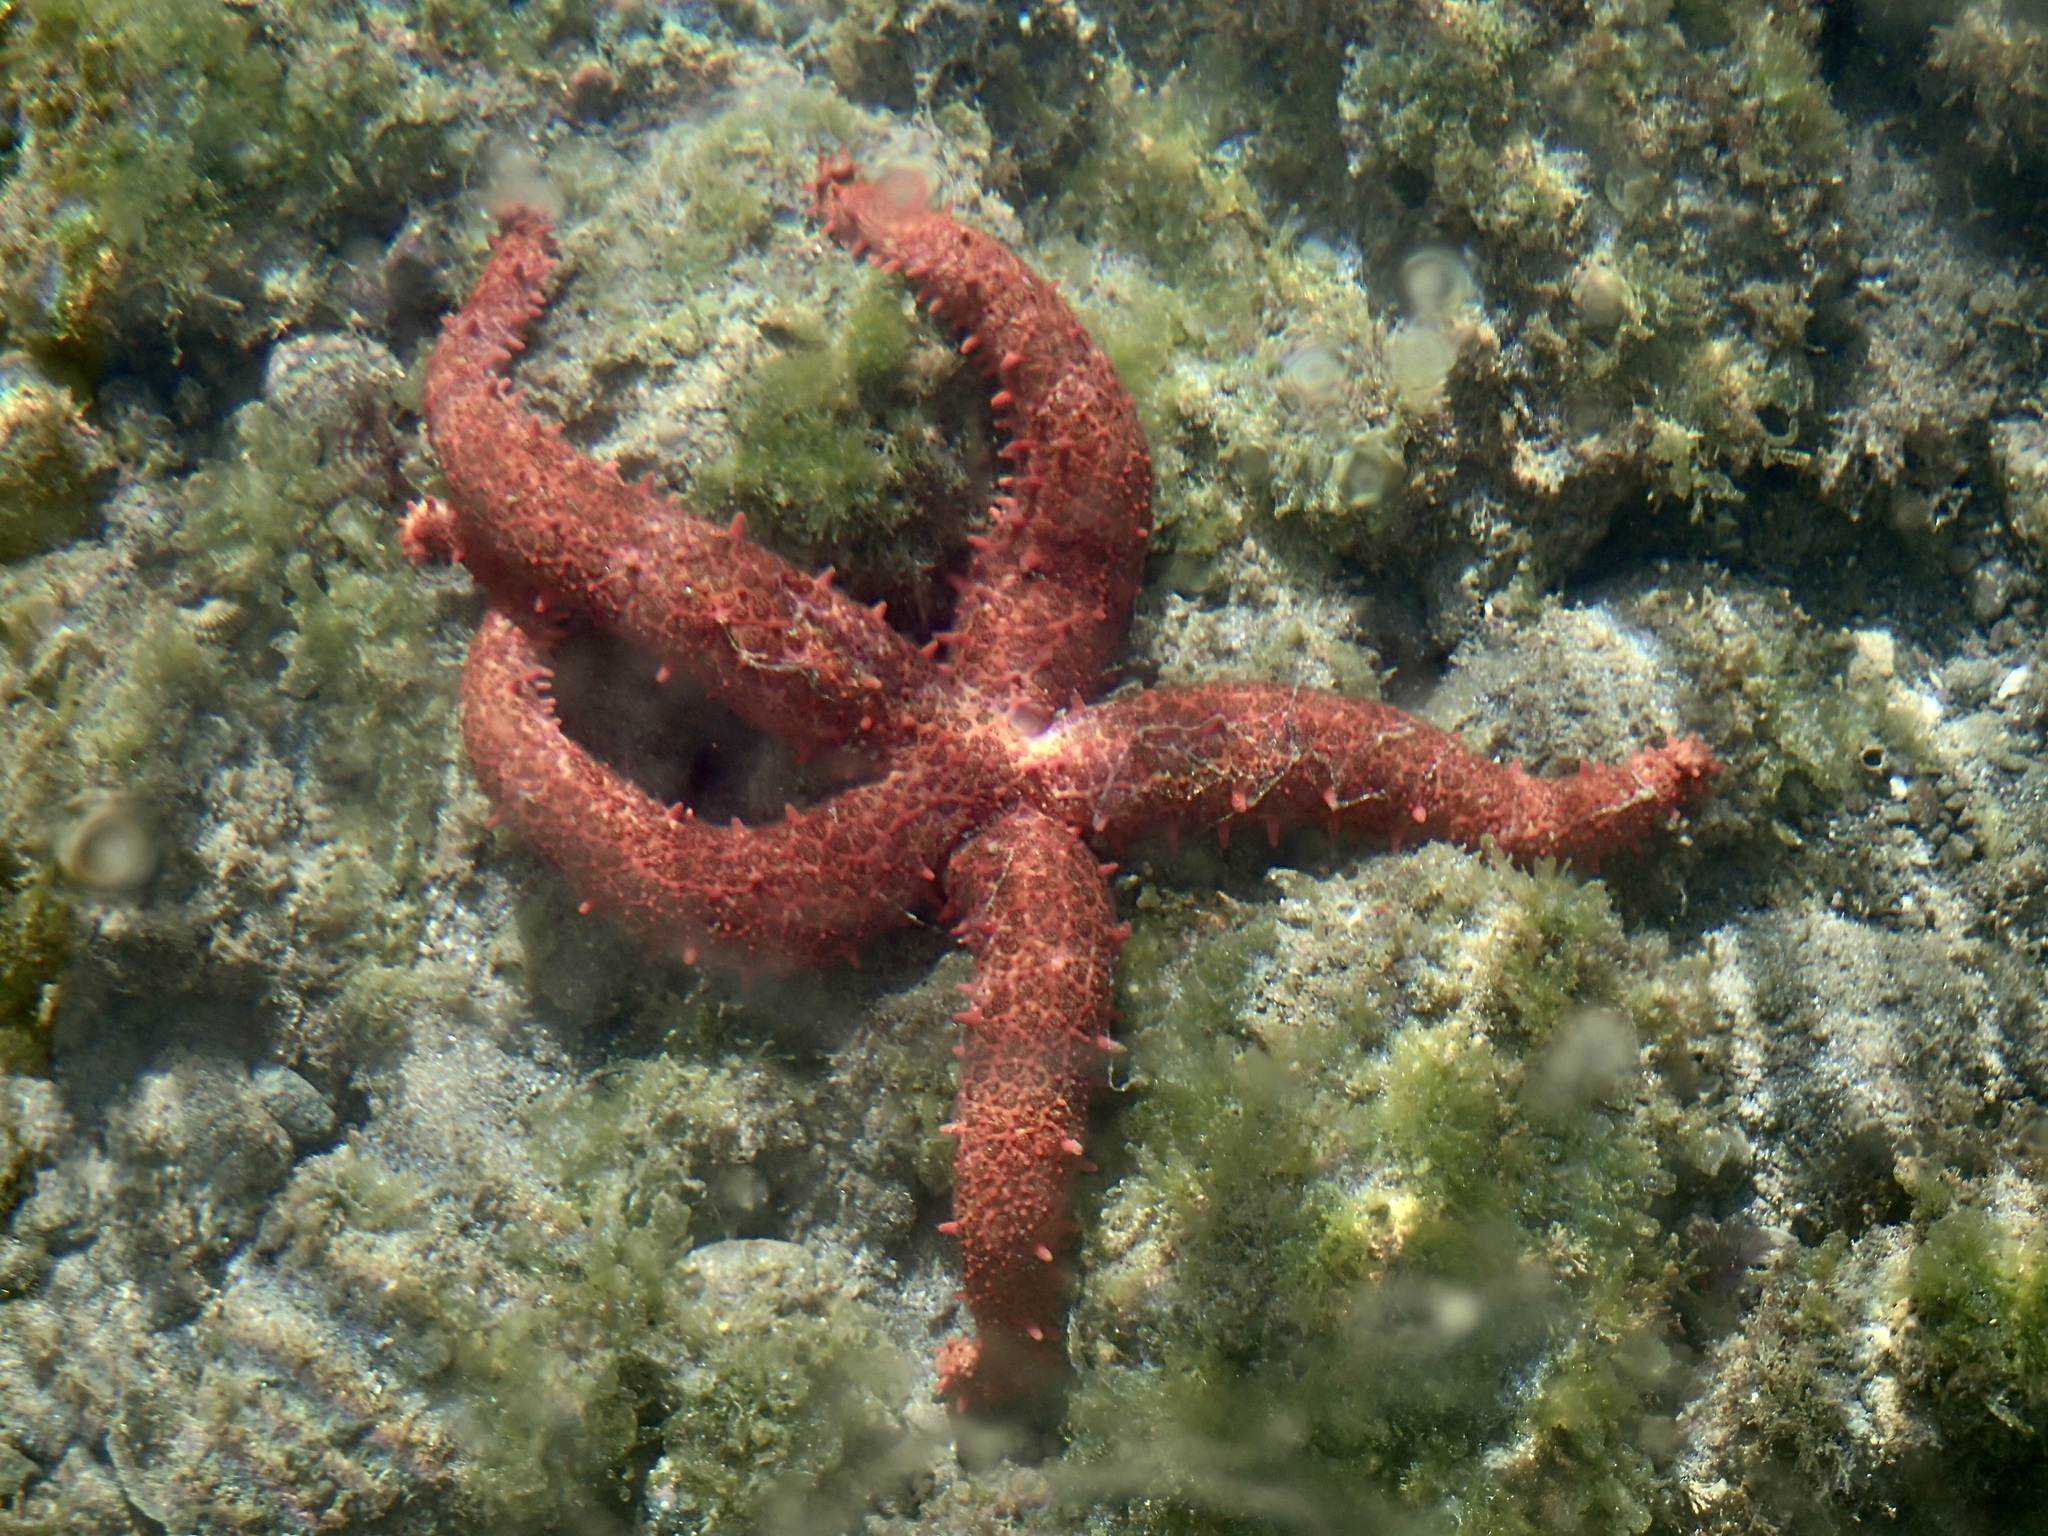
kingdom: Animalia
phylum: Echinodermata
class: Asteroidea
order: Valvatida
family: Mithrodiidae
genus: Mithrodia
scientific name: Mithrodia bradleyi
